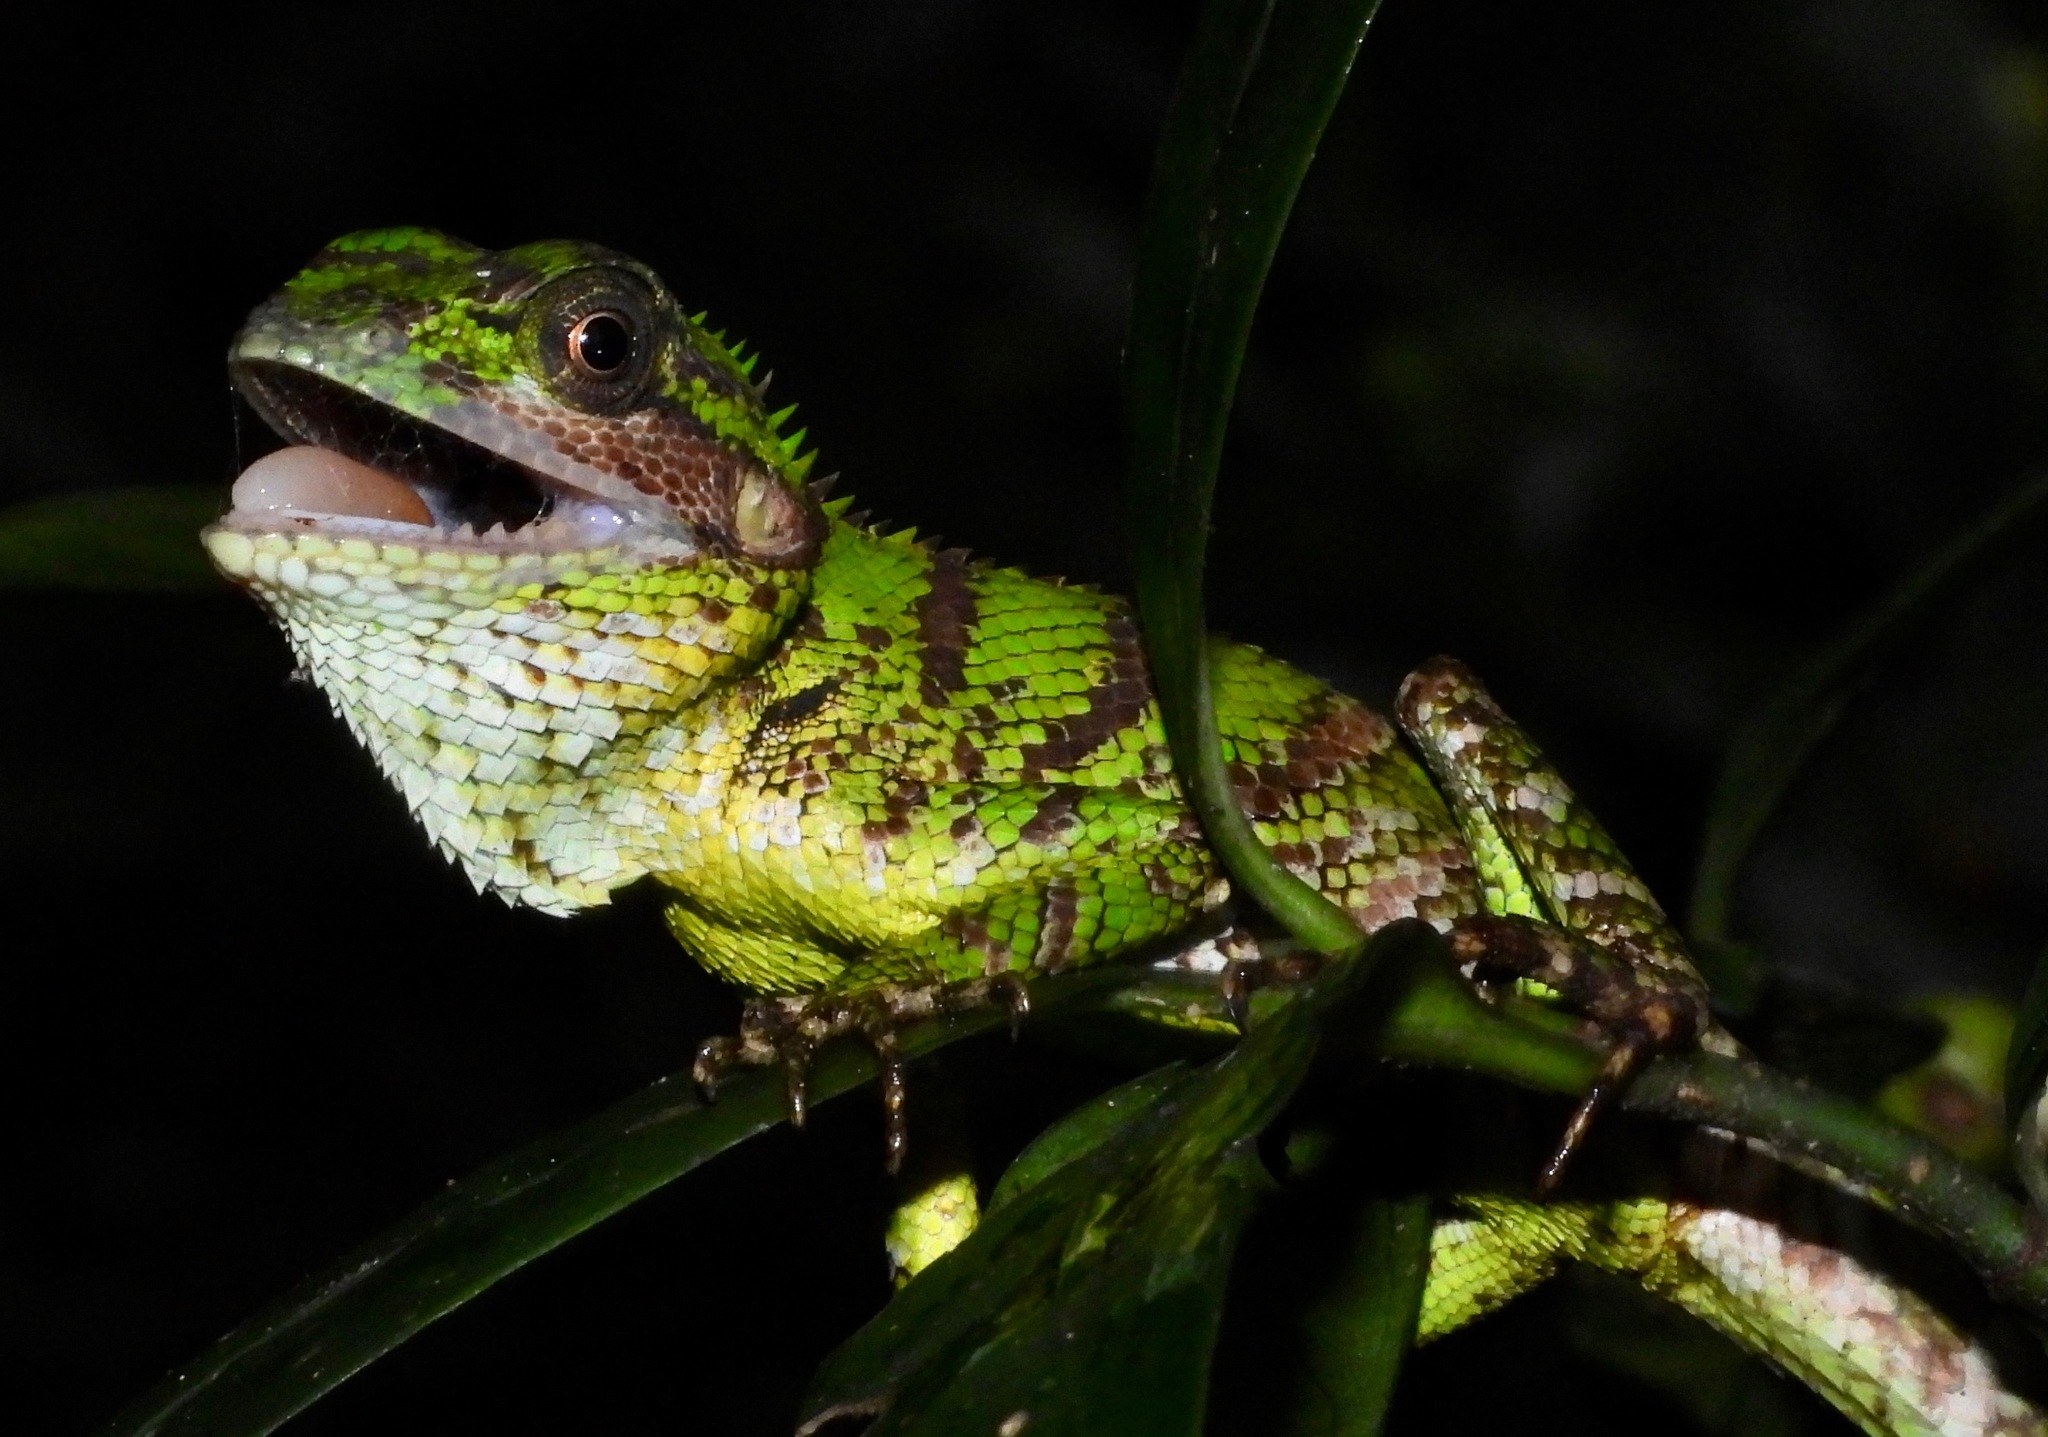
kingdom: Animalia
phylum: Chordata
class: Squamata
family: Agamidae
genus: Calotes
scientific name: Calotes pethiyagodai
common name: Pethiyagoda’s crestless lizard
